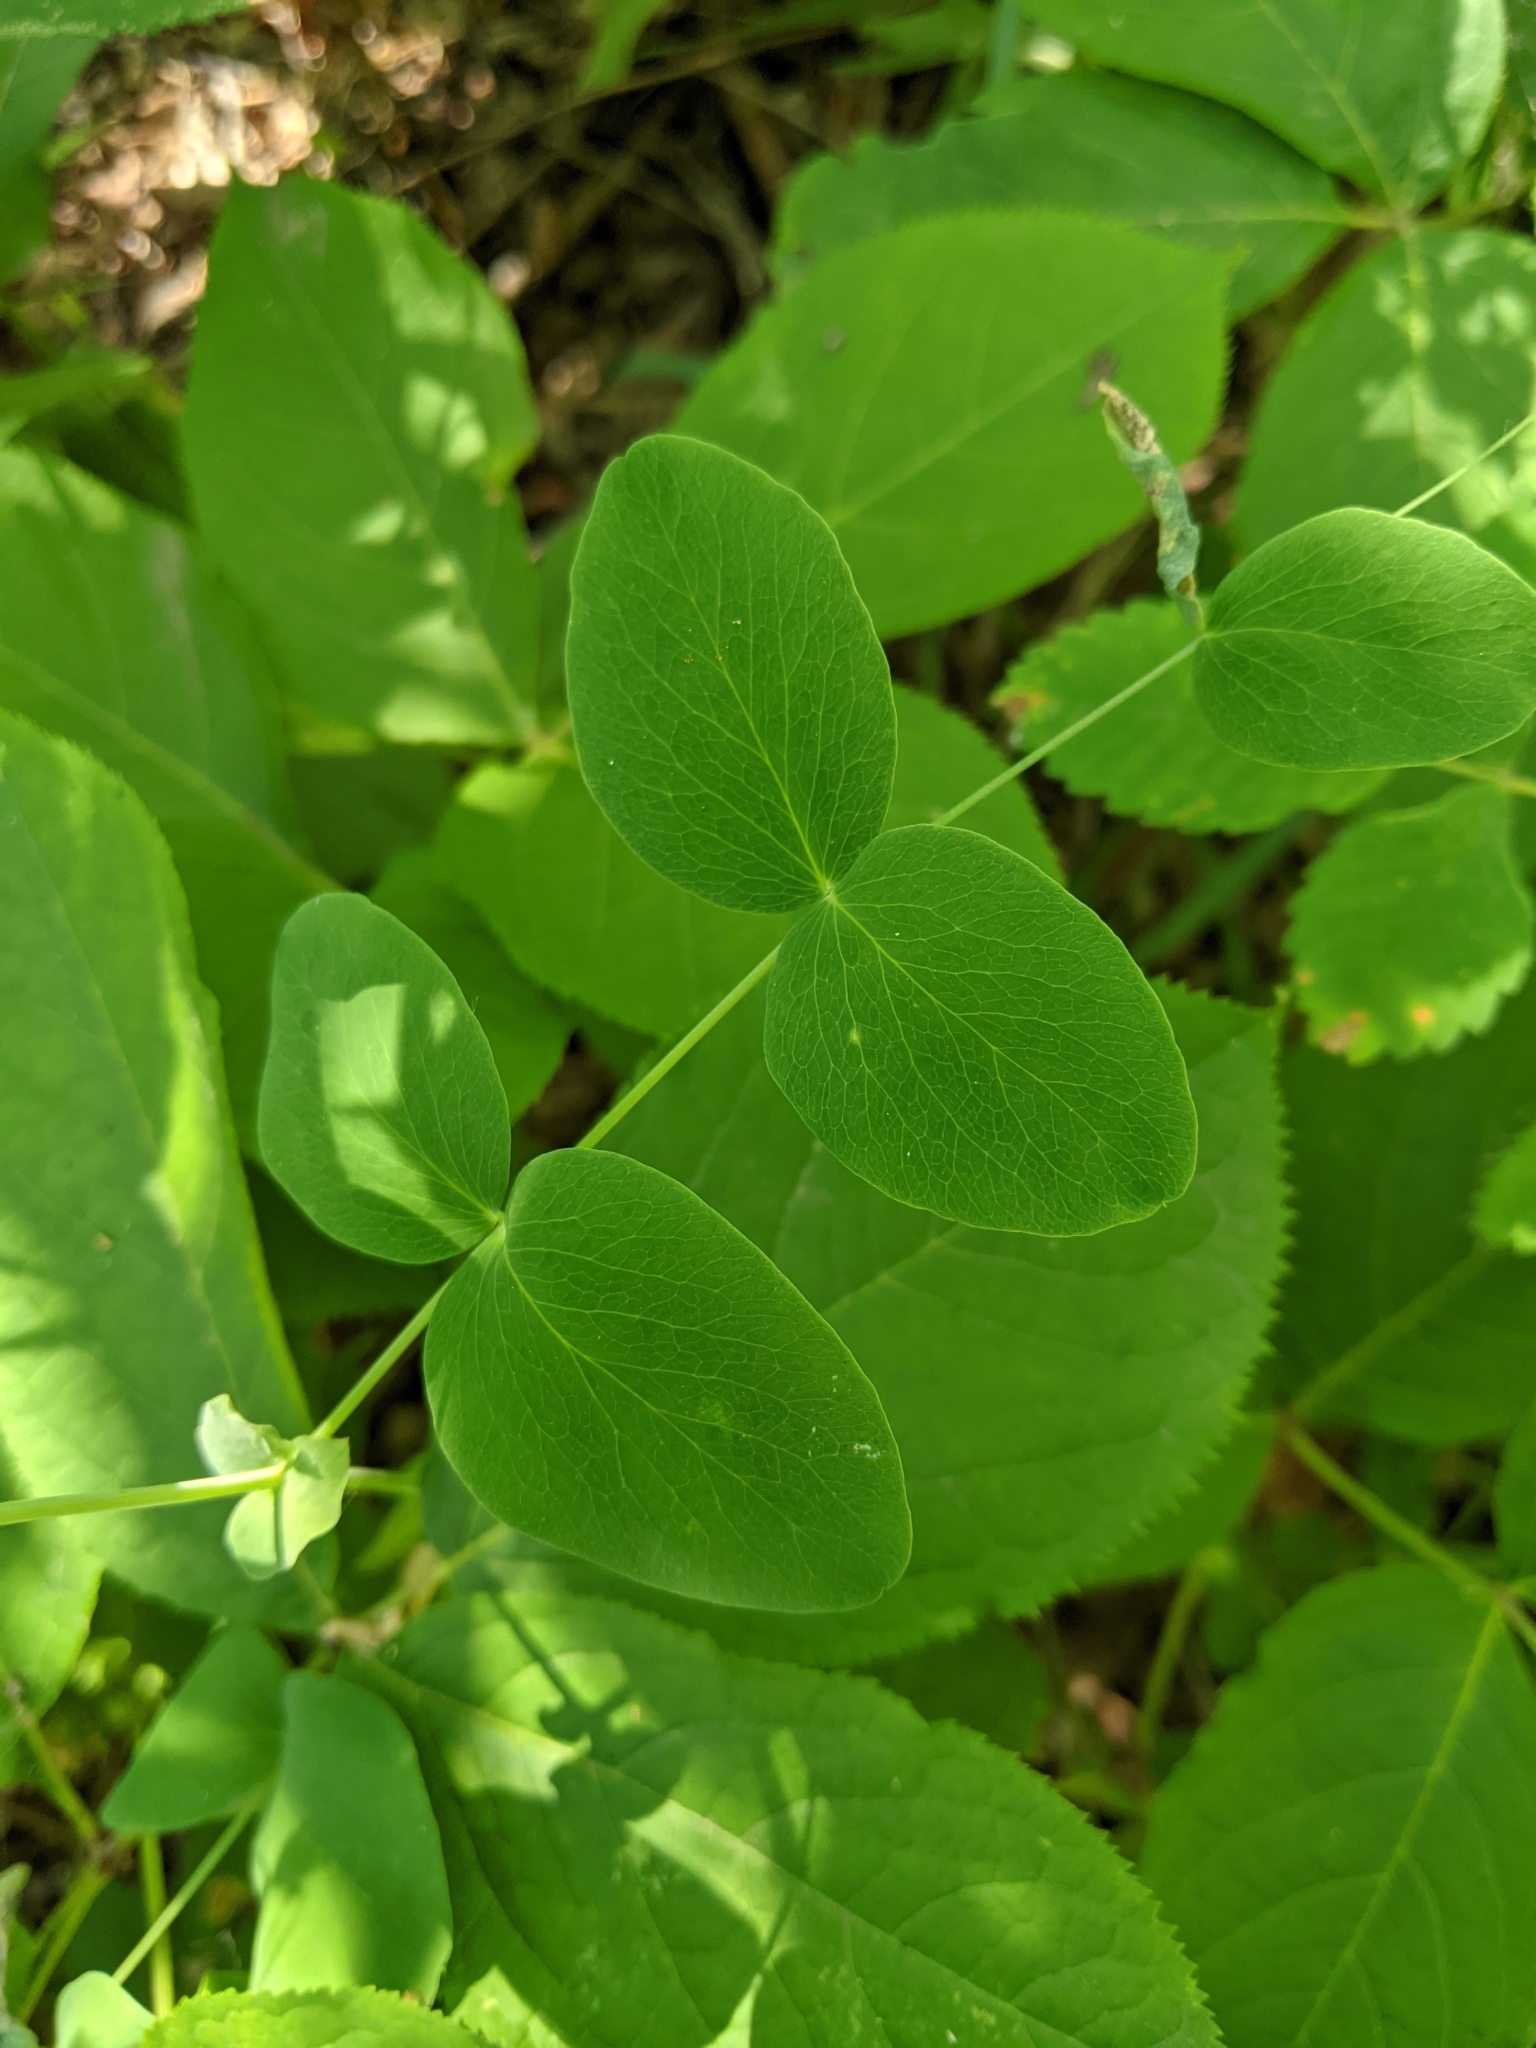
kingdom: Plantae
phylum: Tracheophyta
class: Magnoliopsida
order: Fabales
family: Fabaceae
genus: Lathyrus
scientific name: Lathyrus ochroleucus
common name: Pale vetchling
